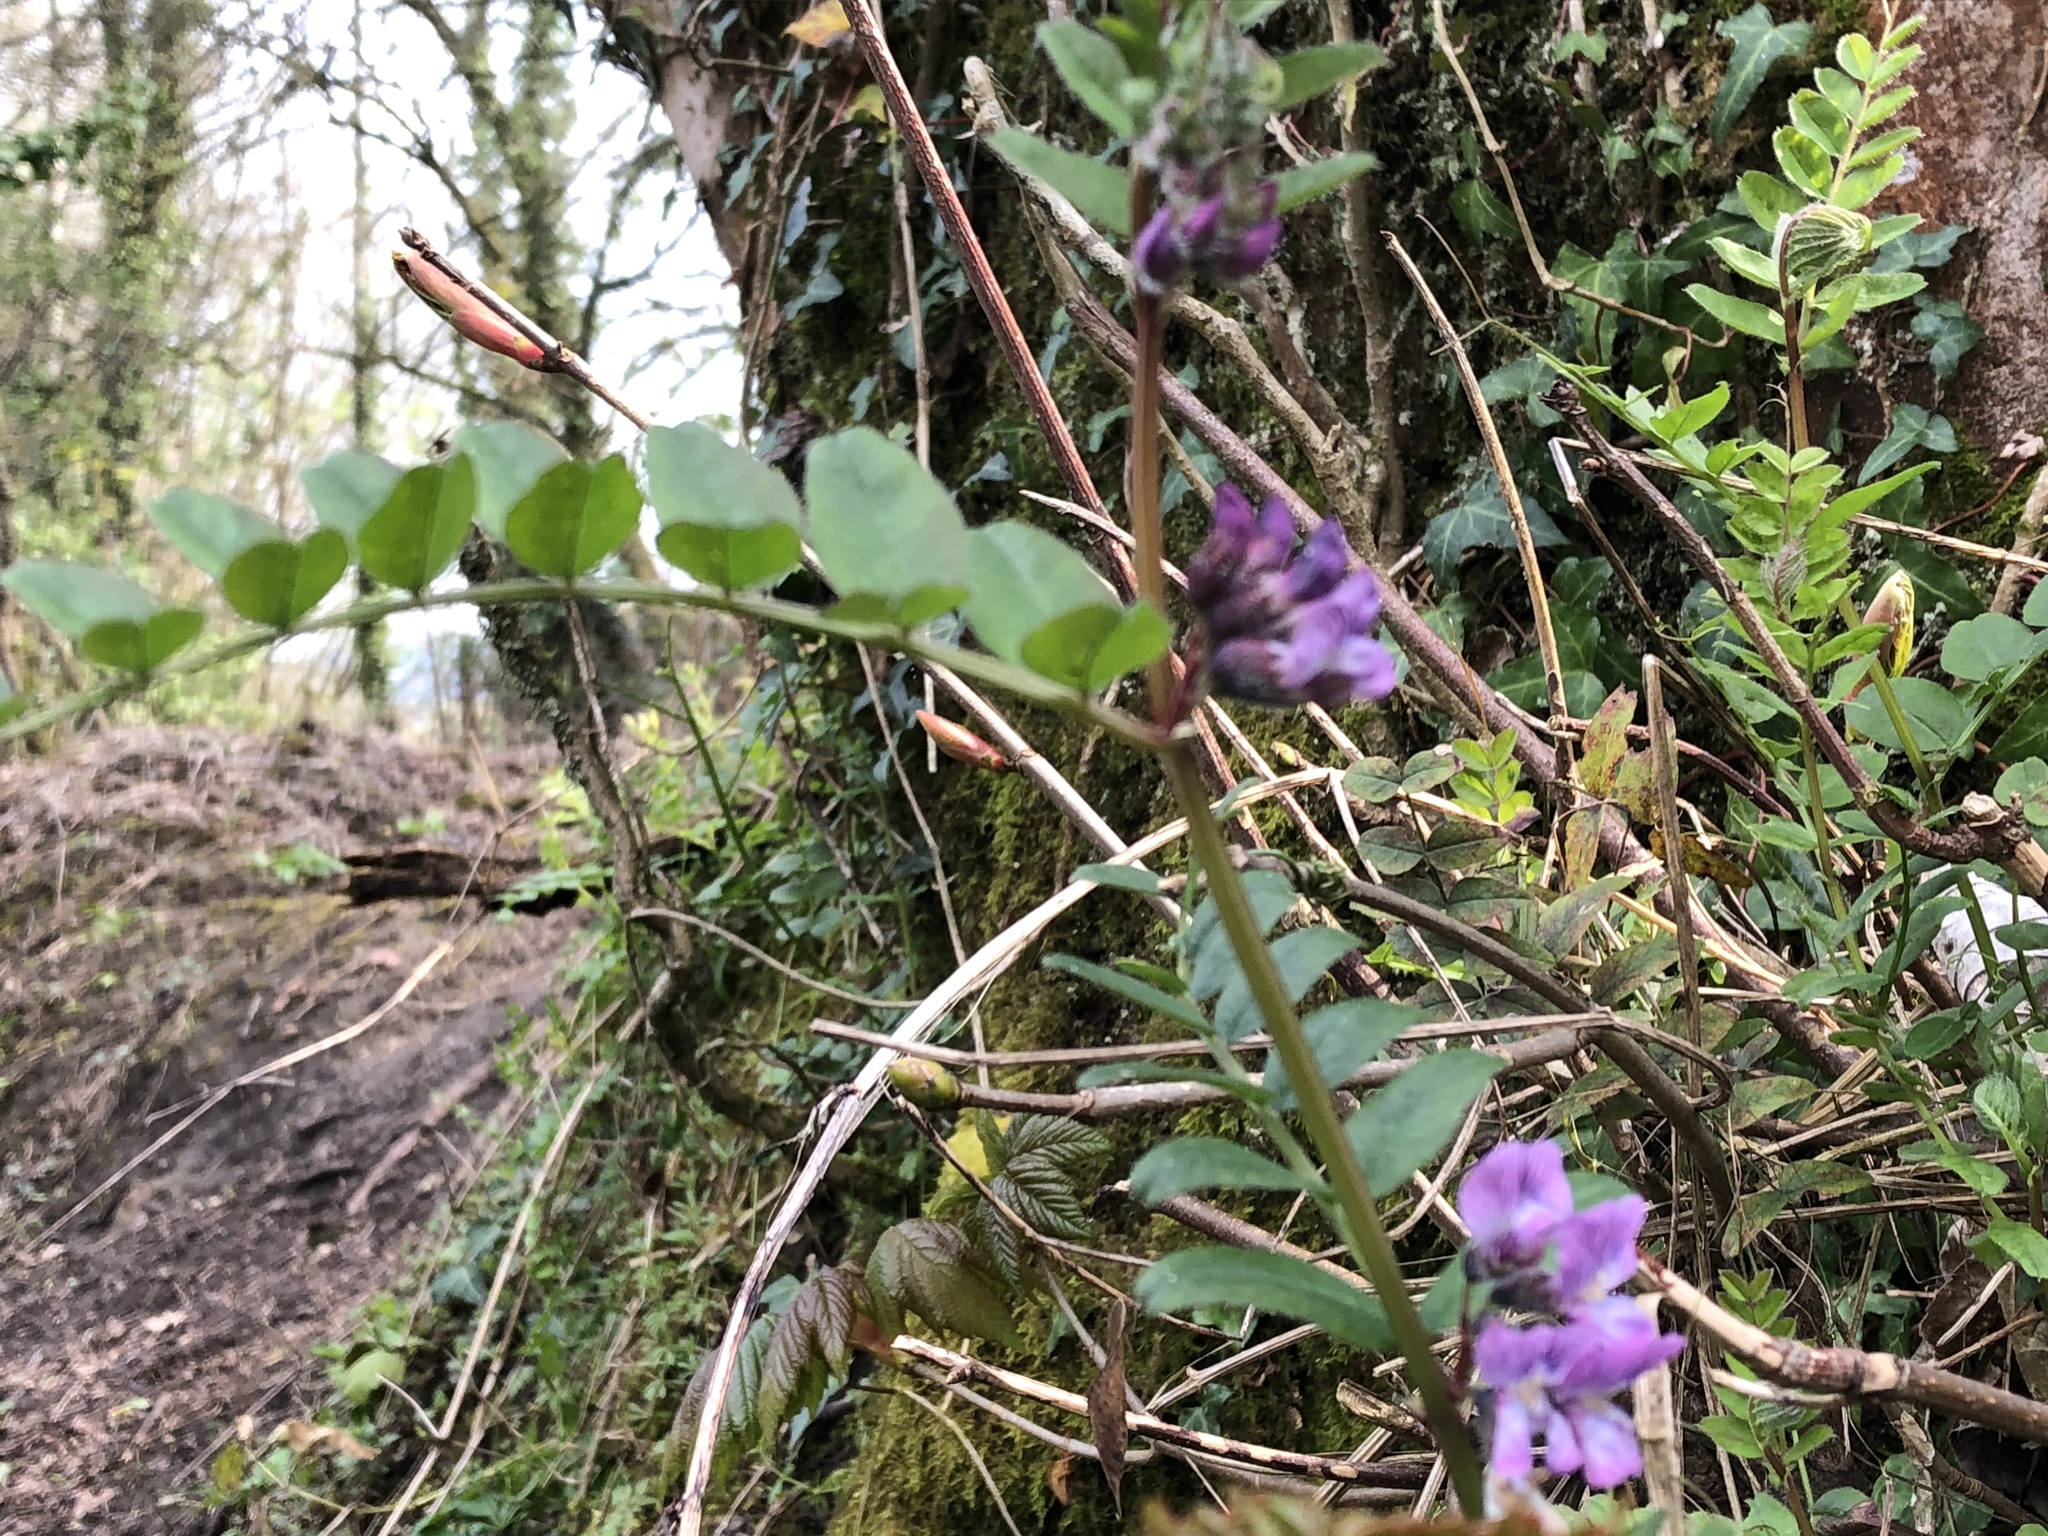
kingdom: Plantae
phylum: Tracheophyta
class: Magnoliopsida
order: Fabales
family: Fabaceae
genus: Vicia
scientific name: Vicia sepium
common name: Bush vetch
